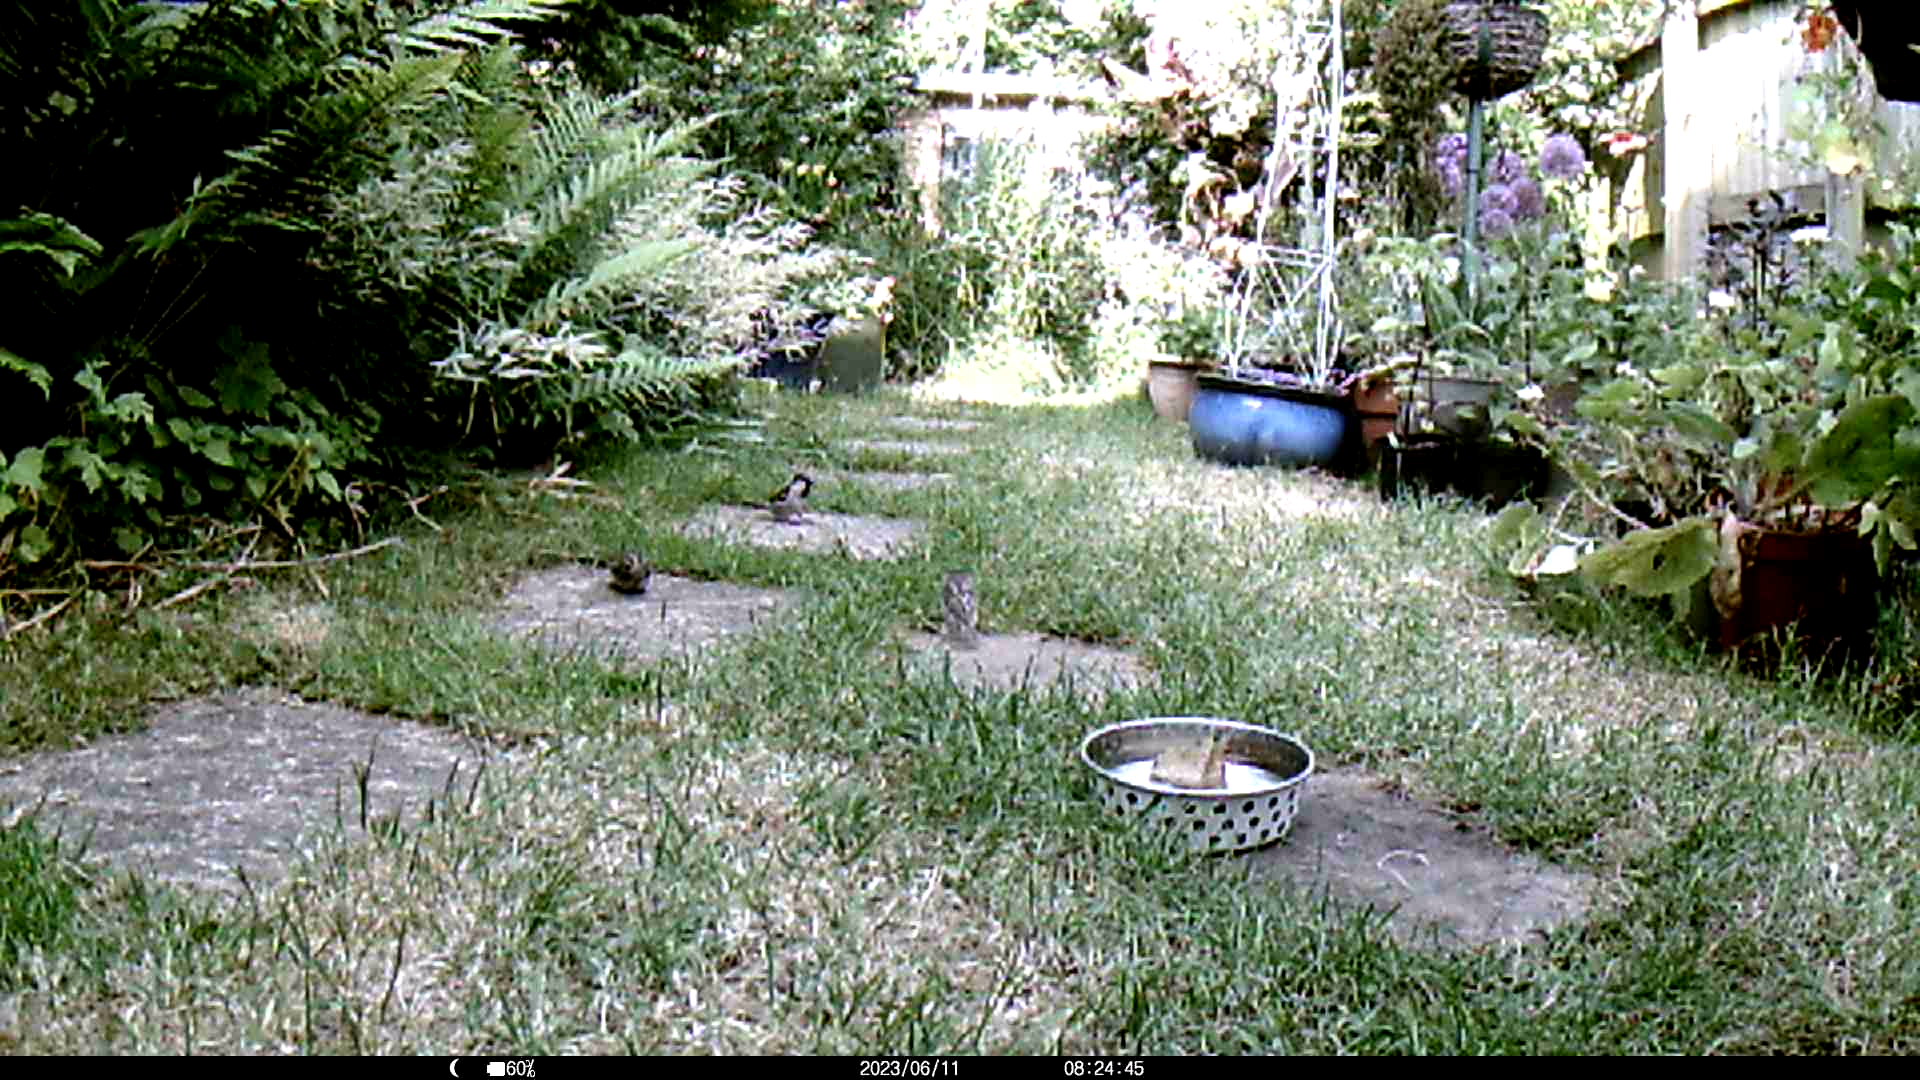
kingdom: Animalia
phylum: Chordata
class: Aves
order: Passeriformes
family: Passeridae
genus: Passer
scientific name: Passer domesticus
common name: House sparrow
